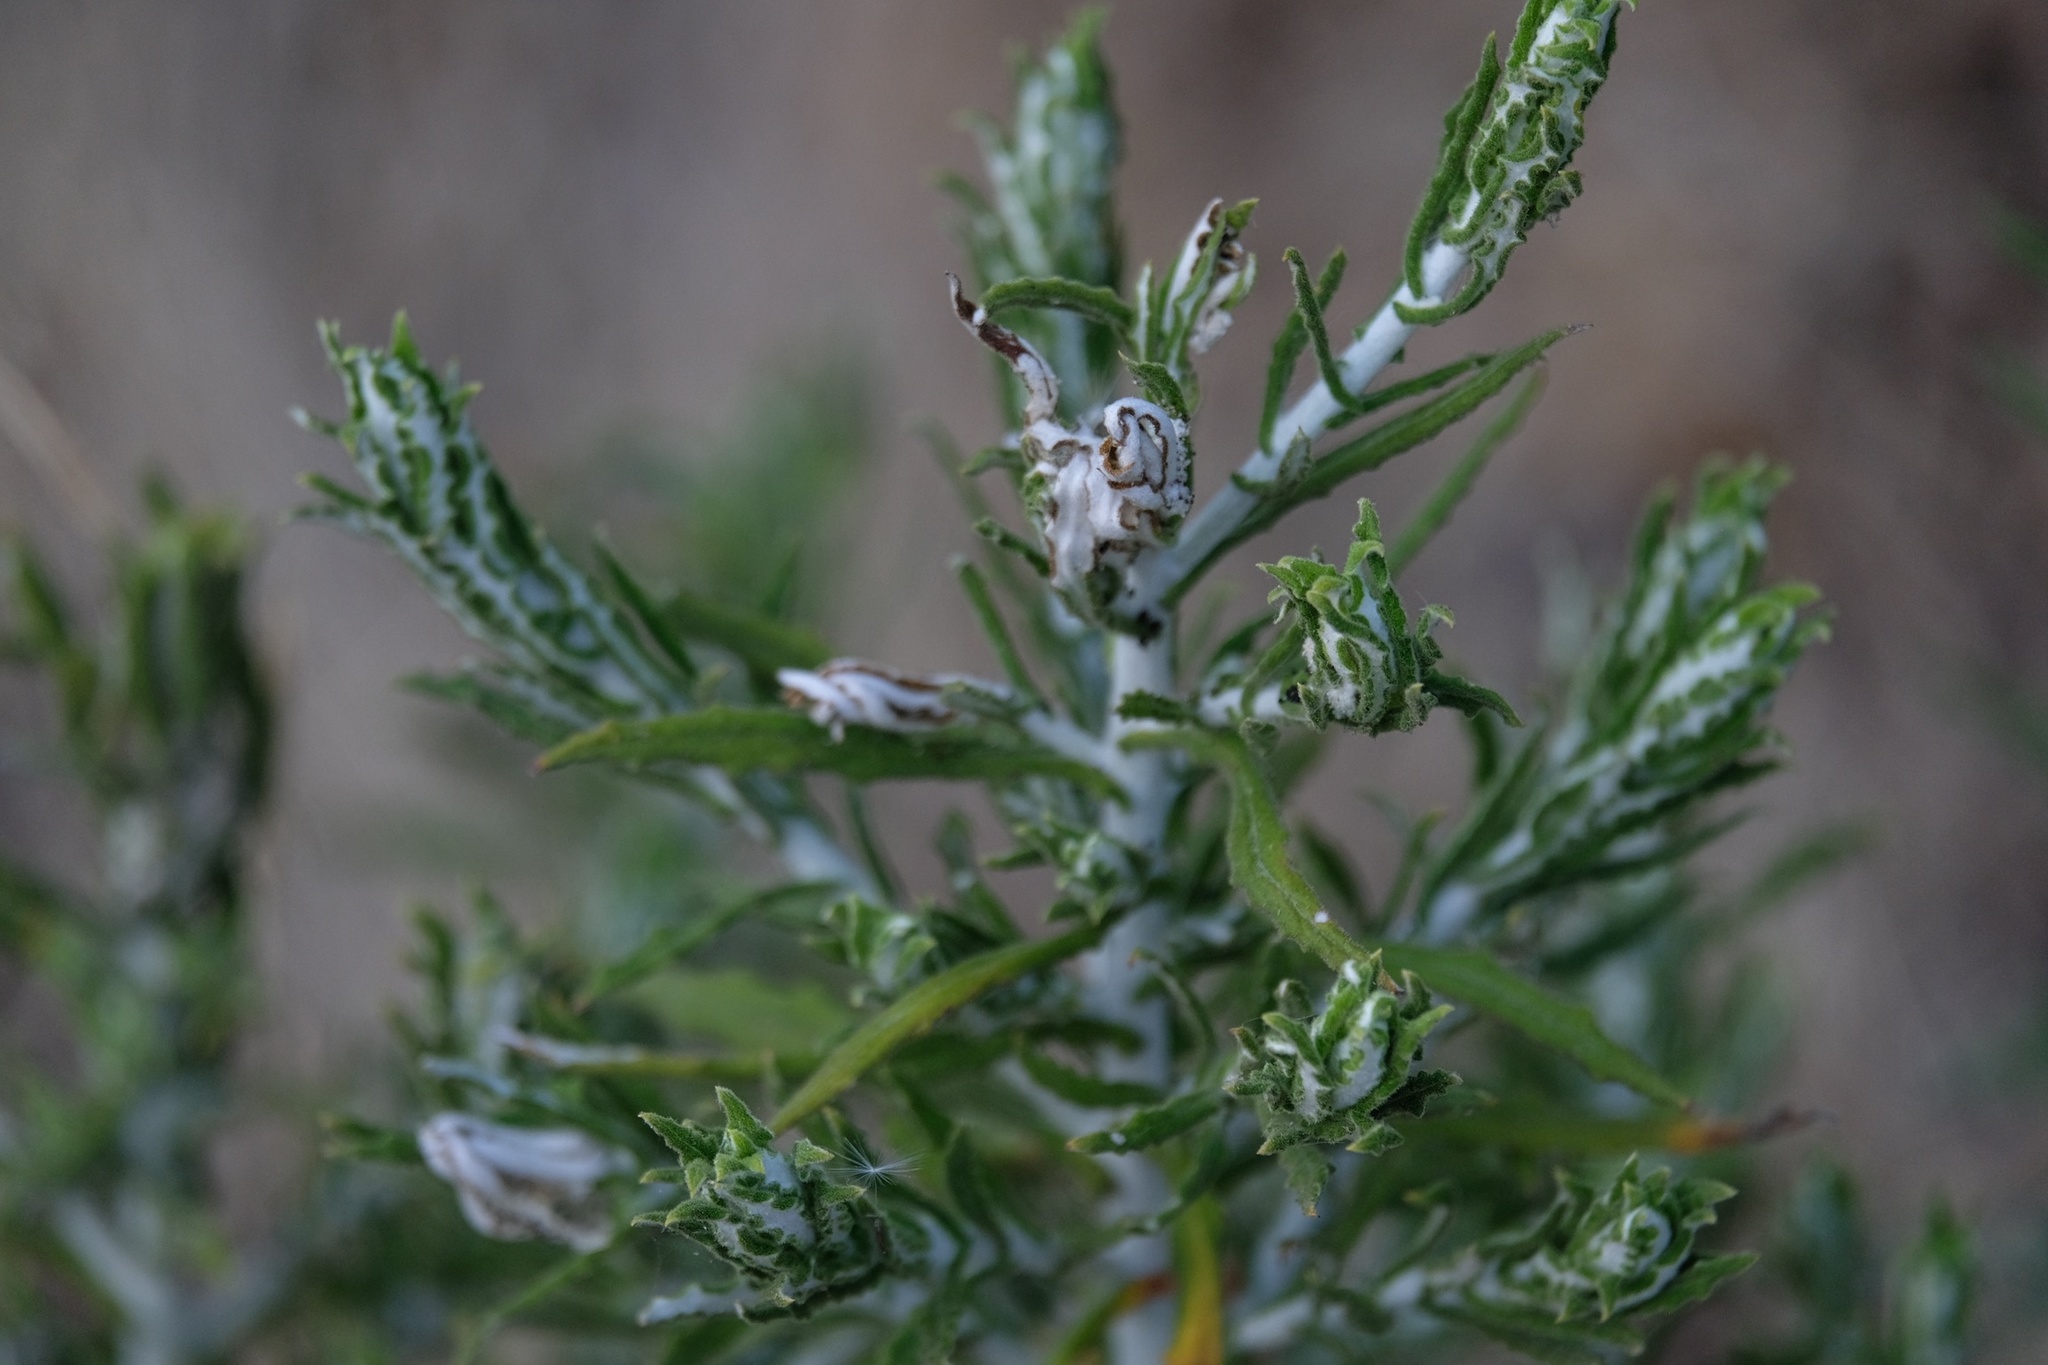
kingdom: Plantae
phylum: Tracheophyta
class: Magnoliopsida
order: Asterales
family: Asteraceae
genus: Pseudognaphalium
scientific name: Pseudognaphalium biolettii
